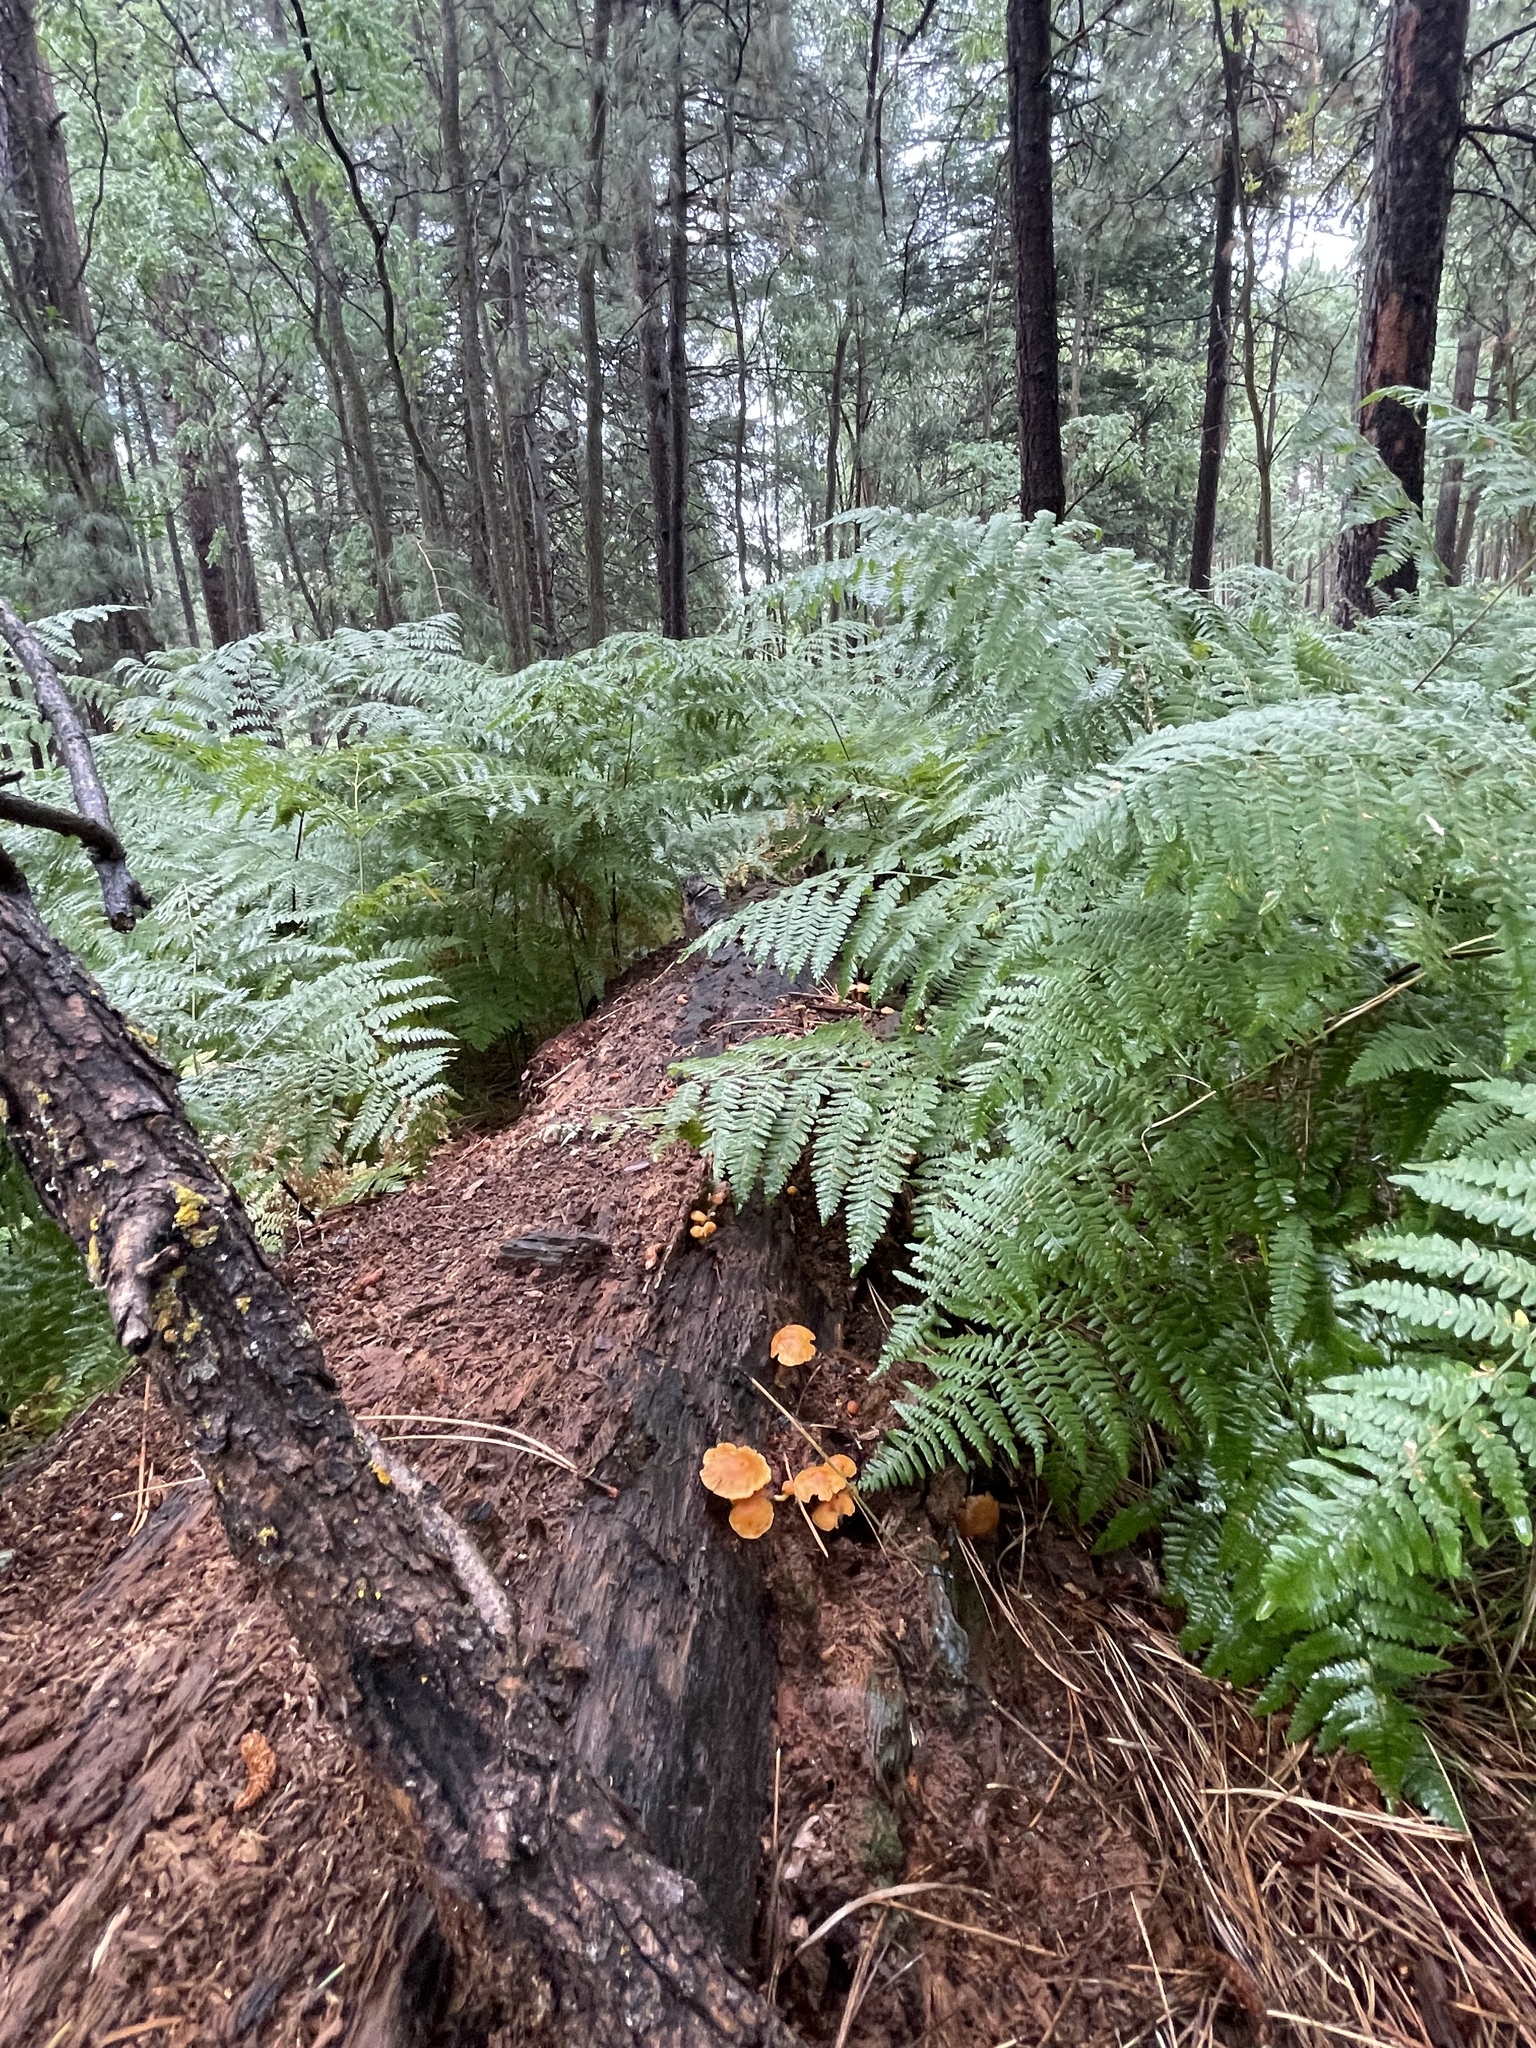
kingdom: Fungi
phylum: Basidiomycota
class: Agaricomycetes
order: Agaricales
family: Hymenogastraceae
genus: Gymnopilus
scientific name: Gymnopilus
